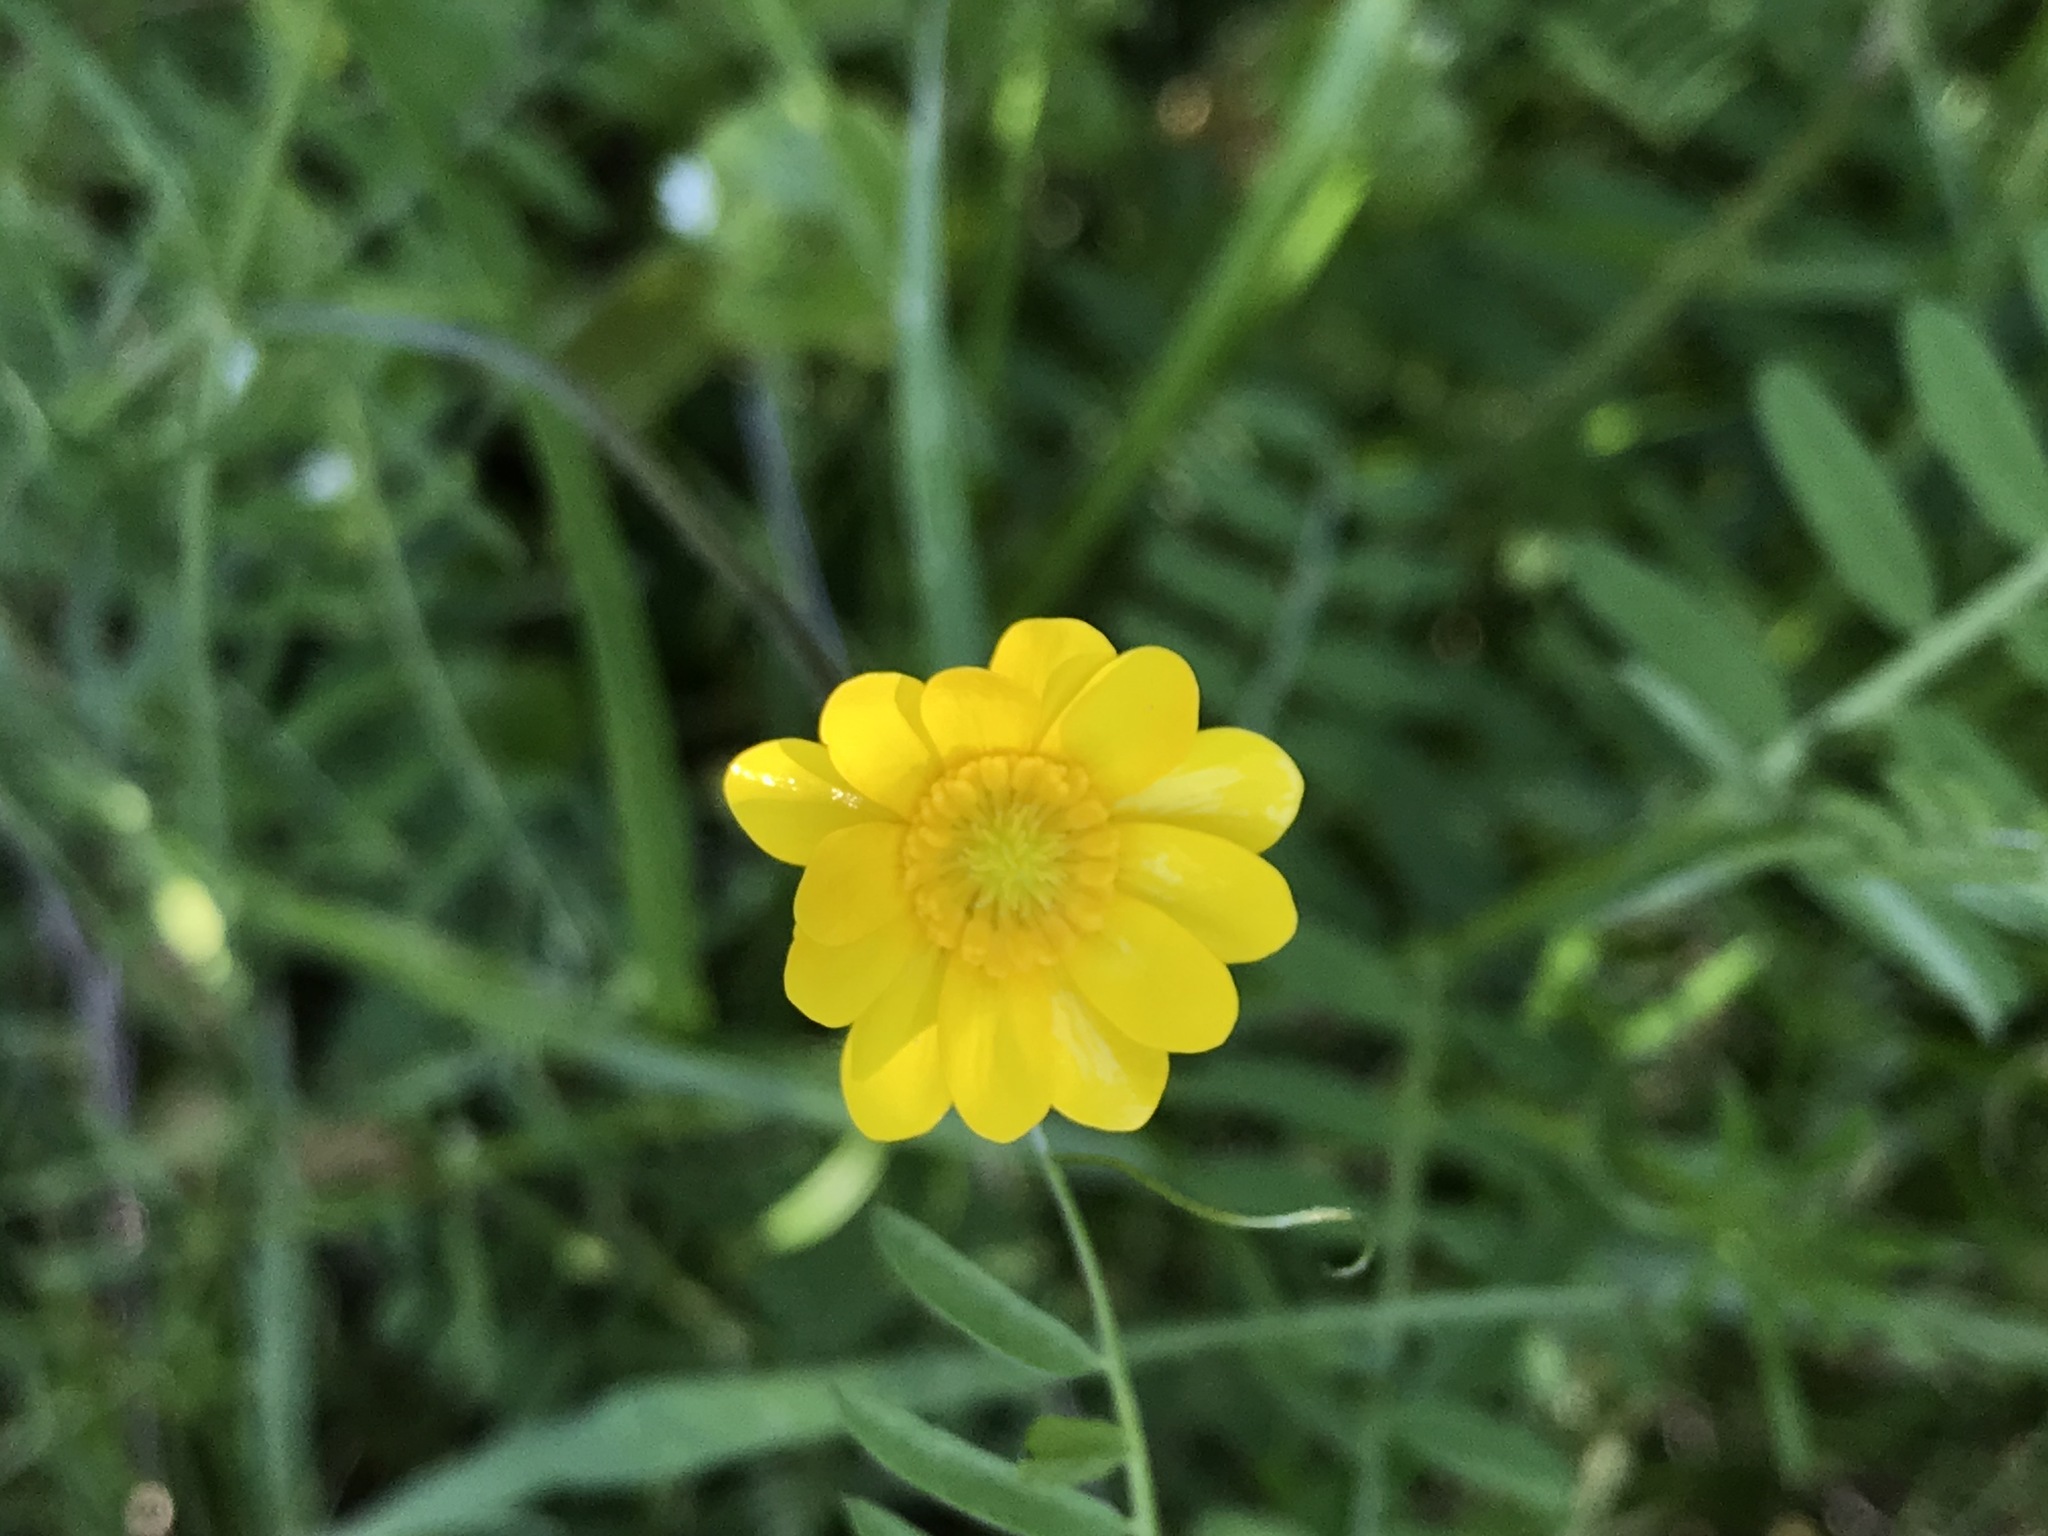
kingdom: Plantae
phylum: Tracheophyta
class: Magnoliopsida
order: Ranunculales
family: Ranunculaceae
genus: Ranunculus
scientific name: Ranunculus californicus
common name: California buttercup
